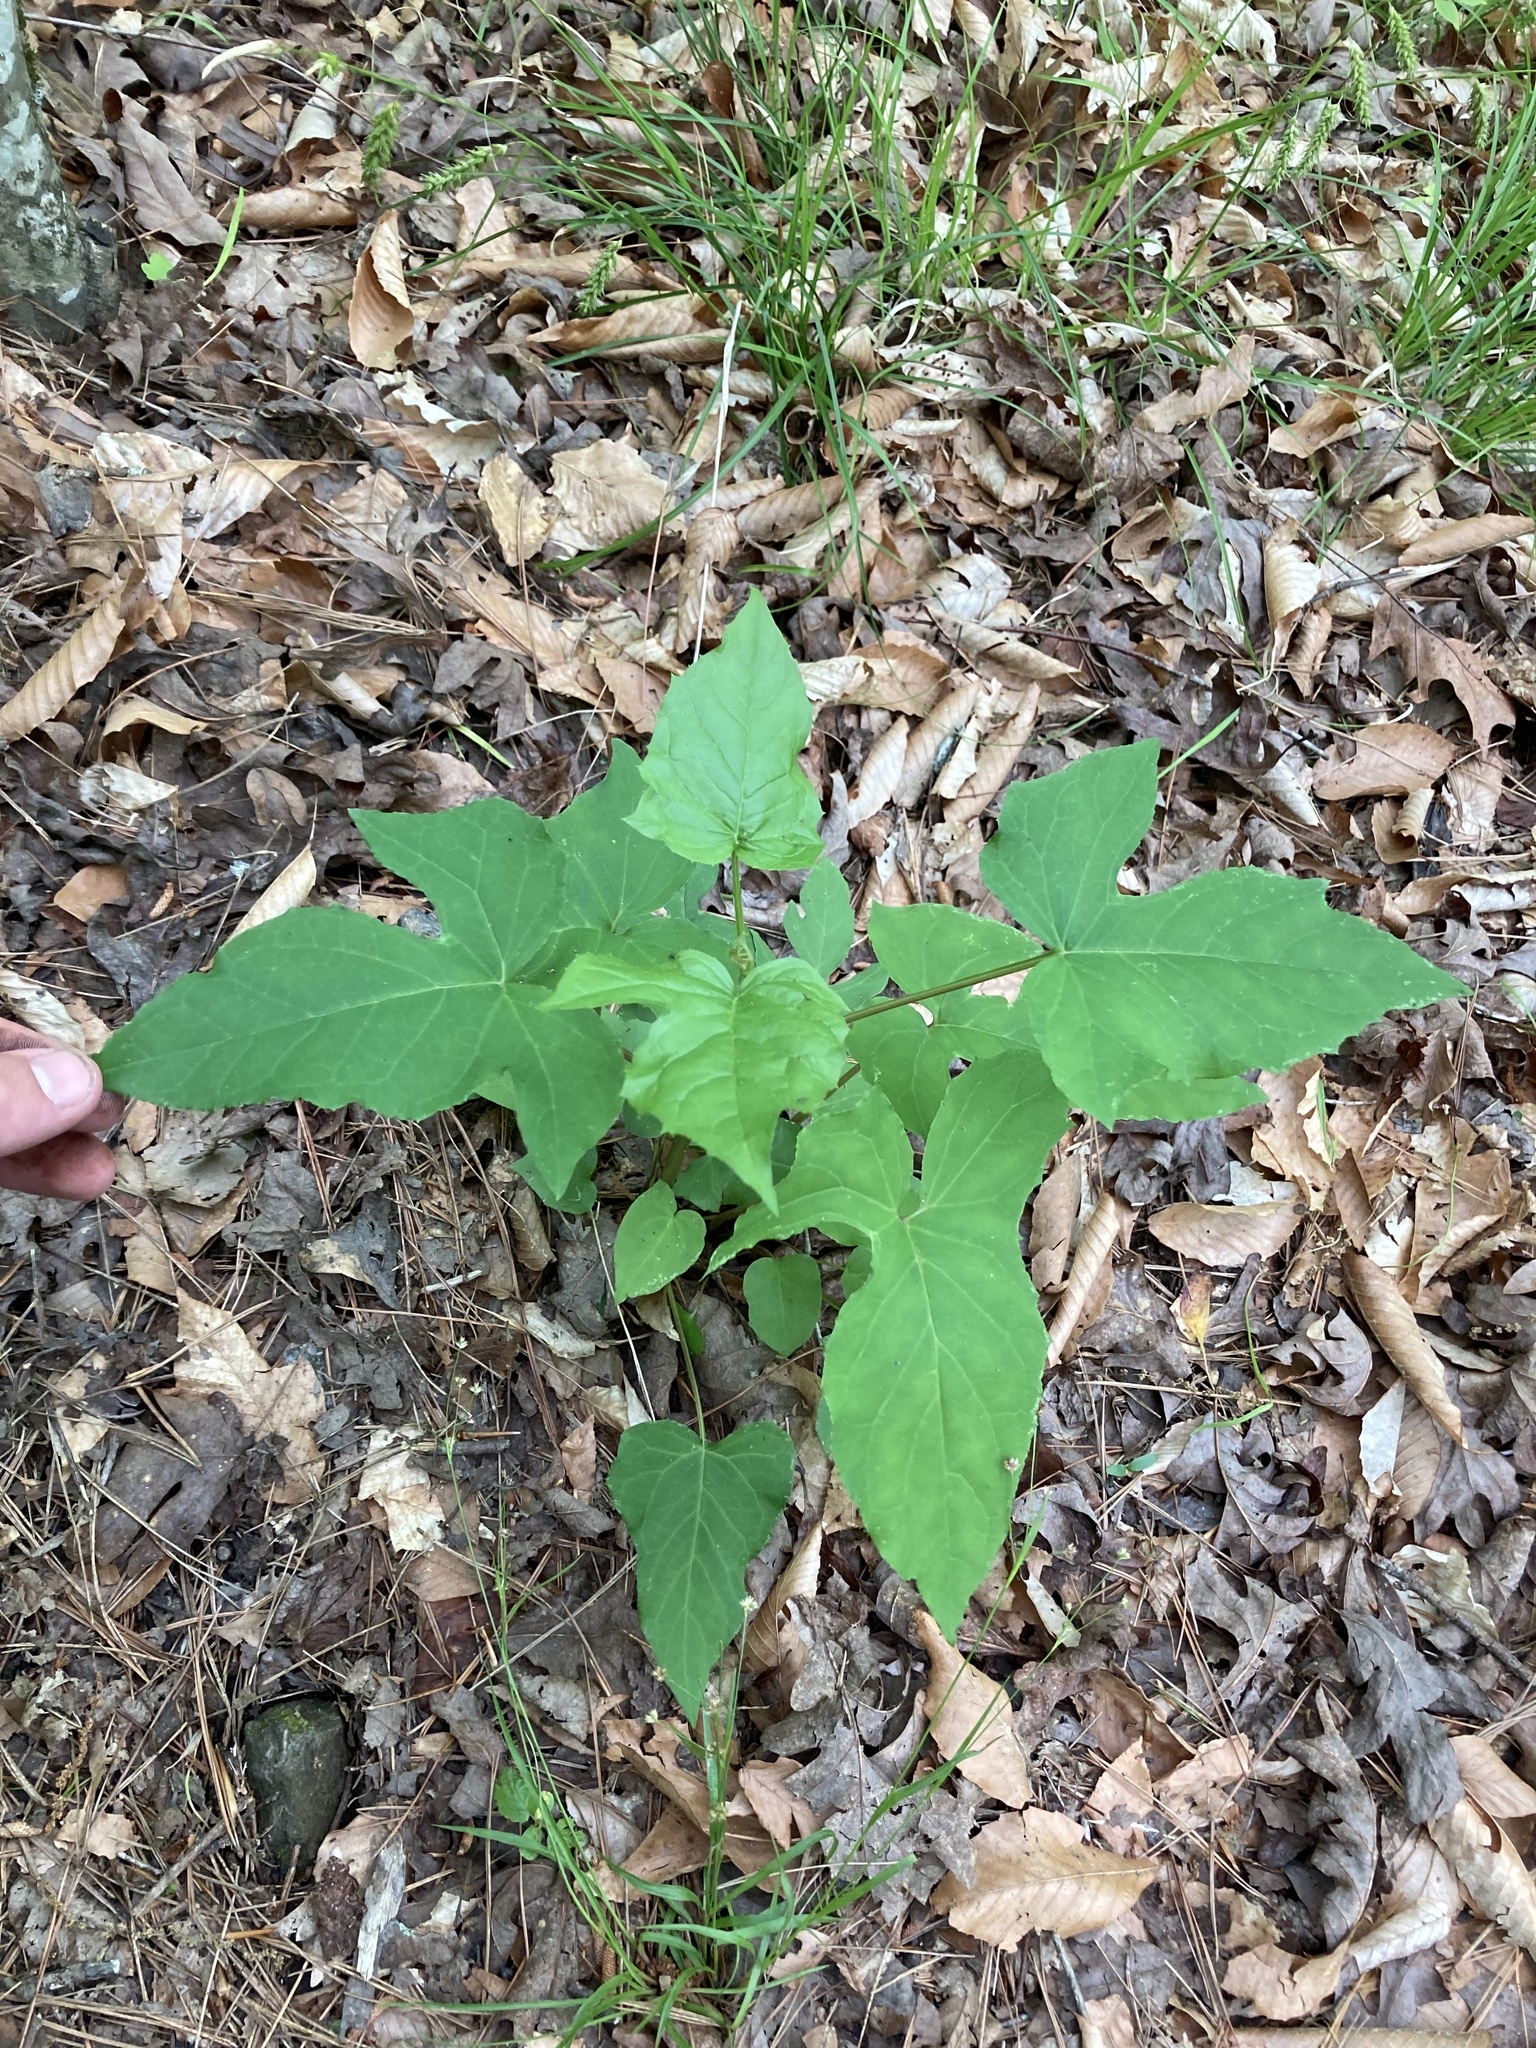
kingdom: Plantae
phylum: Tracheophyta
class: Magnoliopsida
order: Asterales
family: Asteraceae
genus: Nabalus
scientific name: Nabalus altissima
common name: Tall rattlesnakeroot
